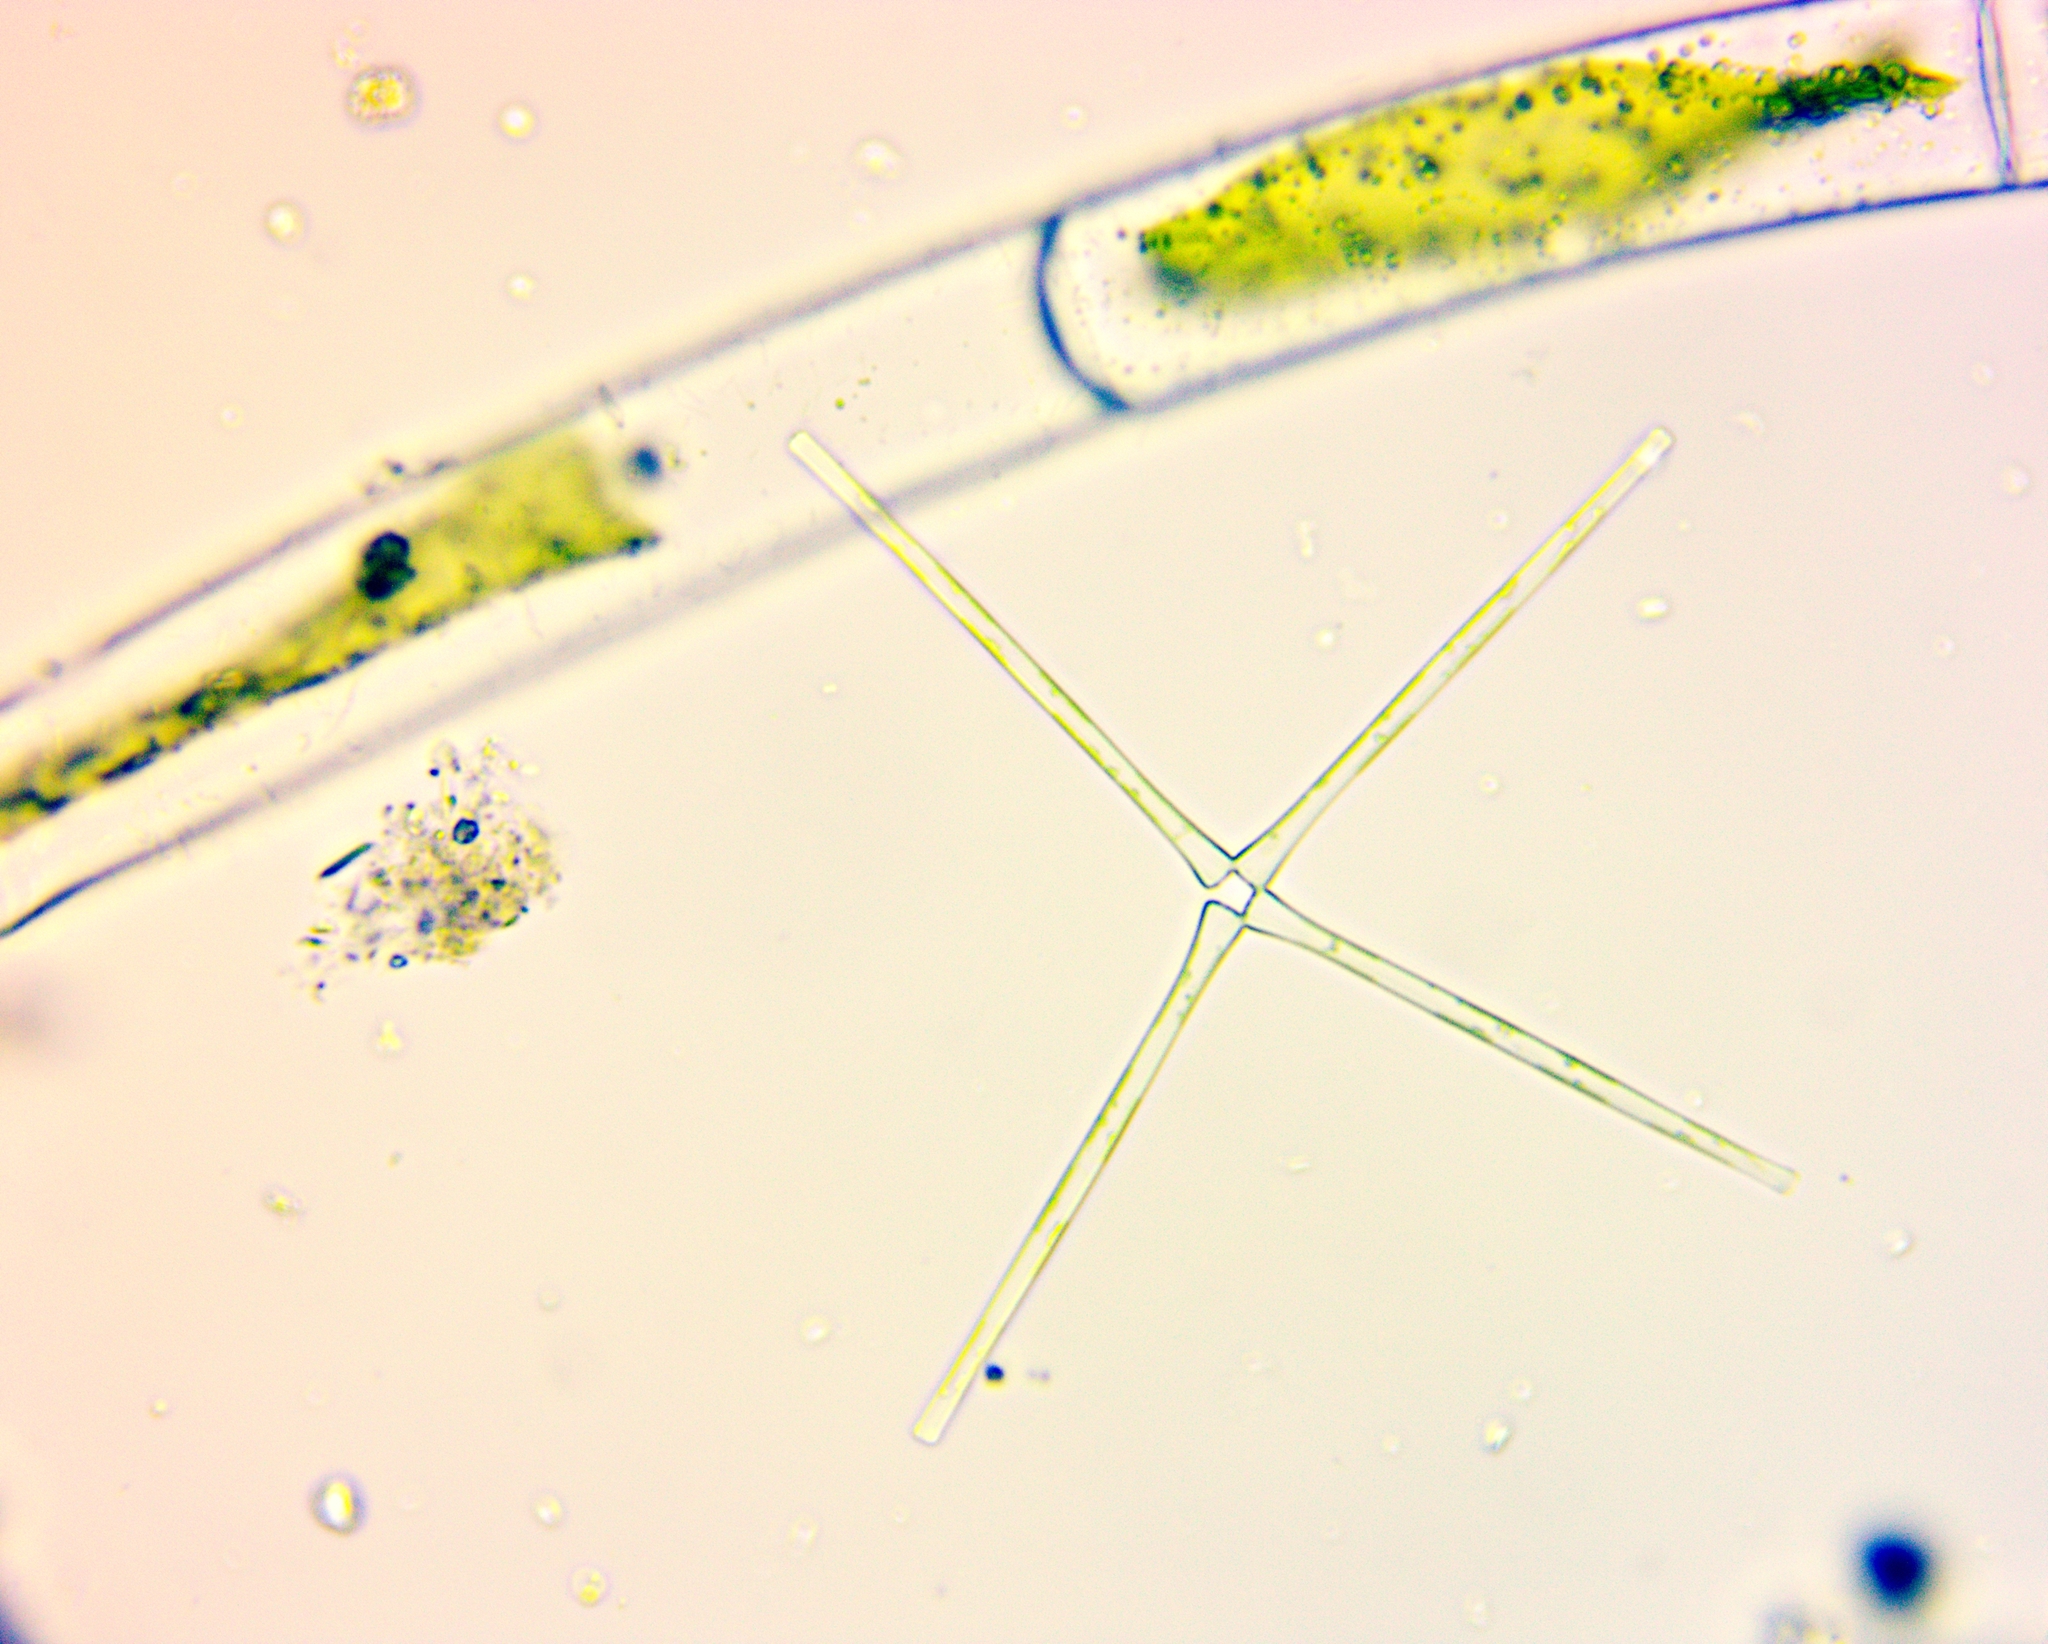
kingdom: Chromista
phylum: Ochrophyta
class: Bacillariophyceae
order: Fragilariales
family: Fragilariaceae
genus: Asterionella
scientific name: Asterionella formosa
